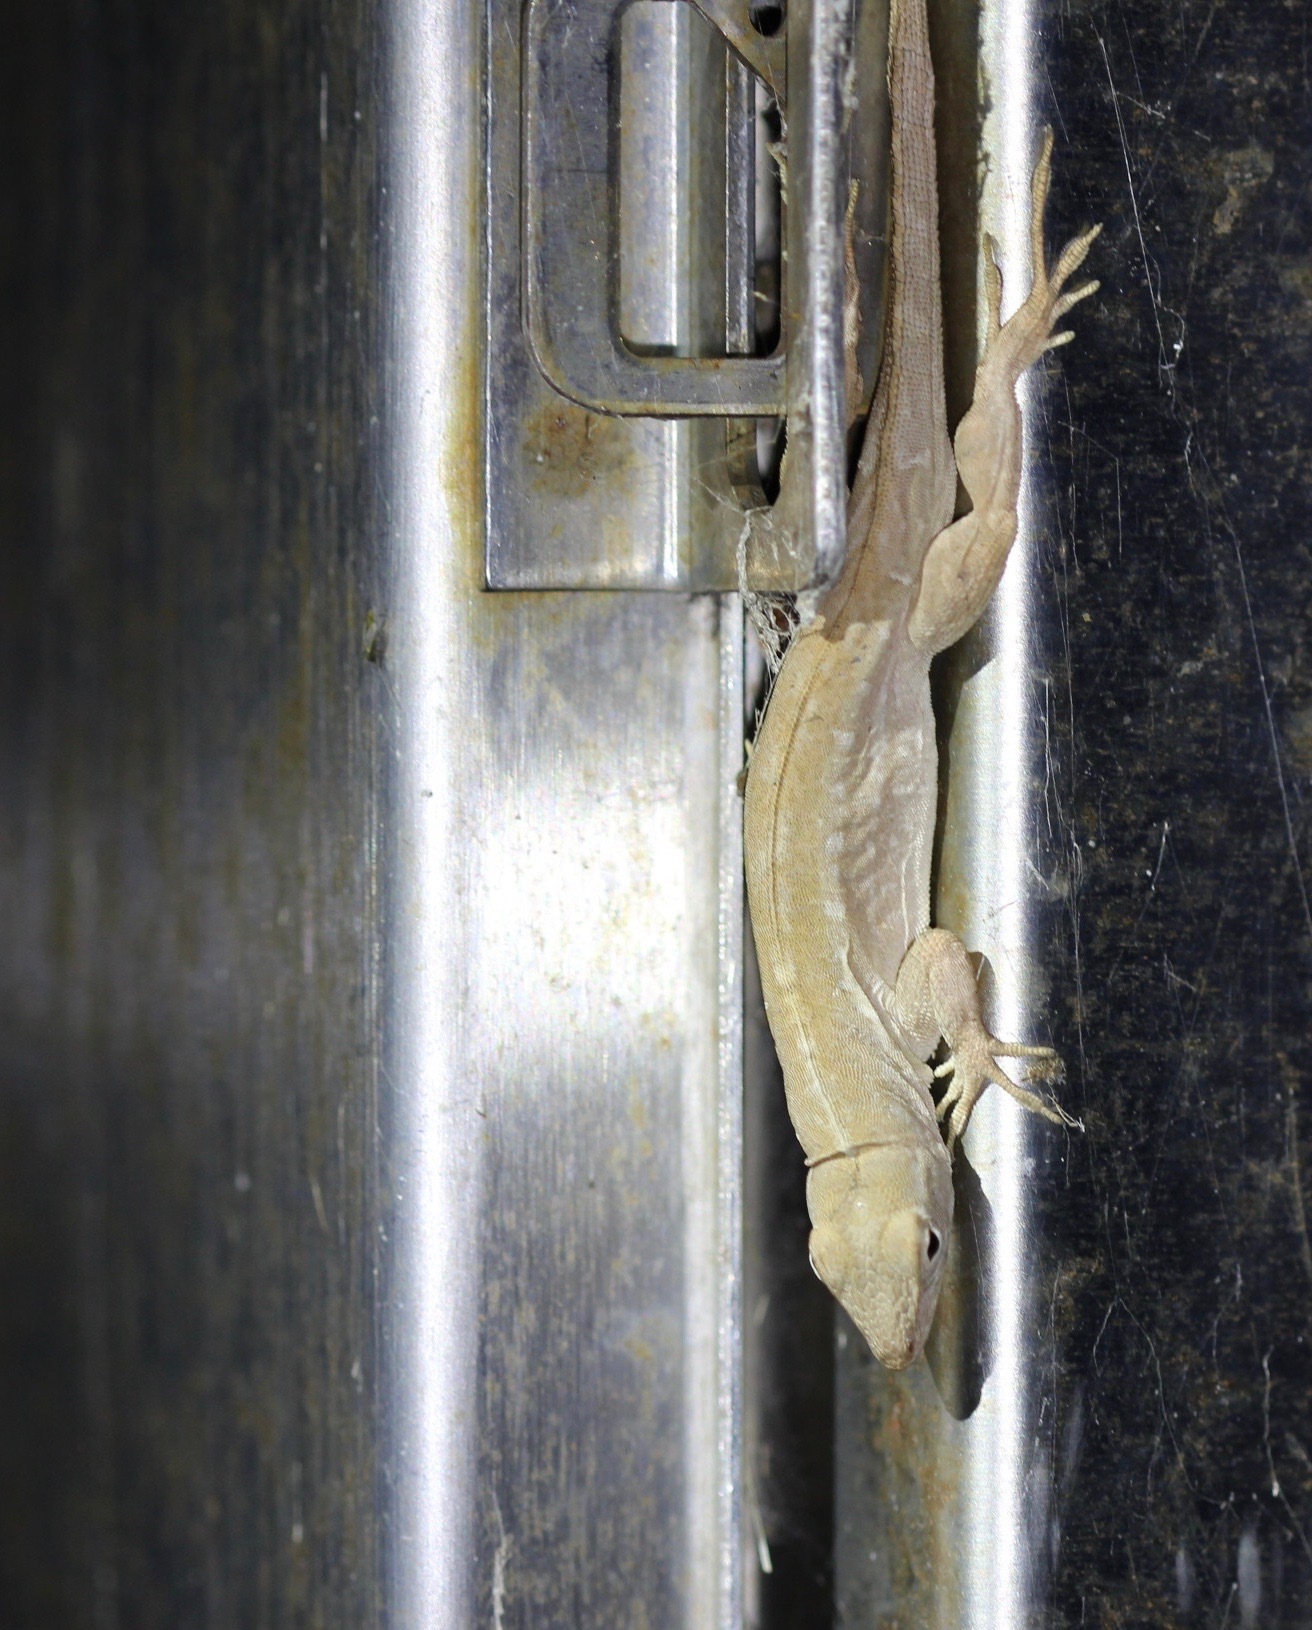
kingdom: Animalia
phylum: Chordata
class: Squamata
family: Dactyloidae
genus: Anolis
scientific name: Anolis sagrei
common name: Brown anole
